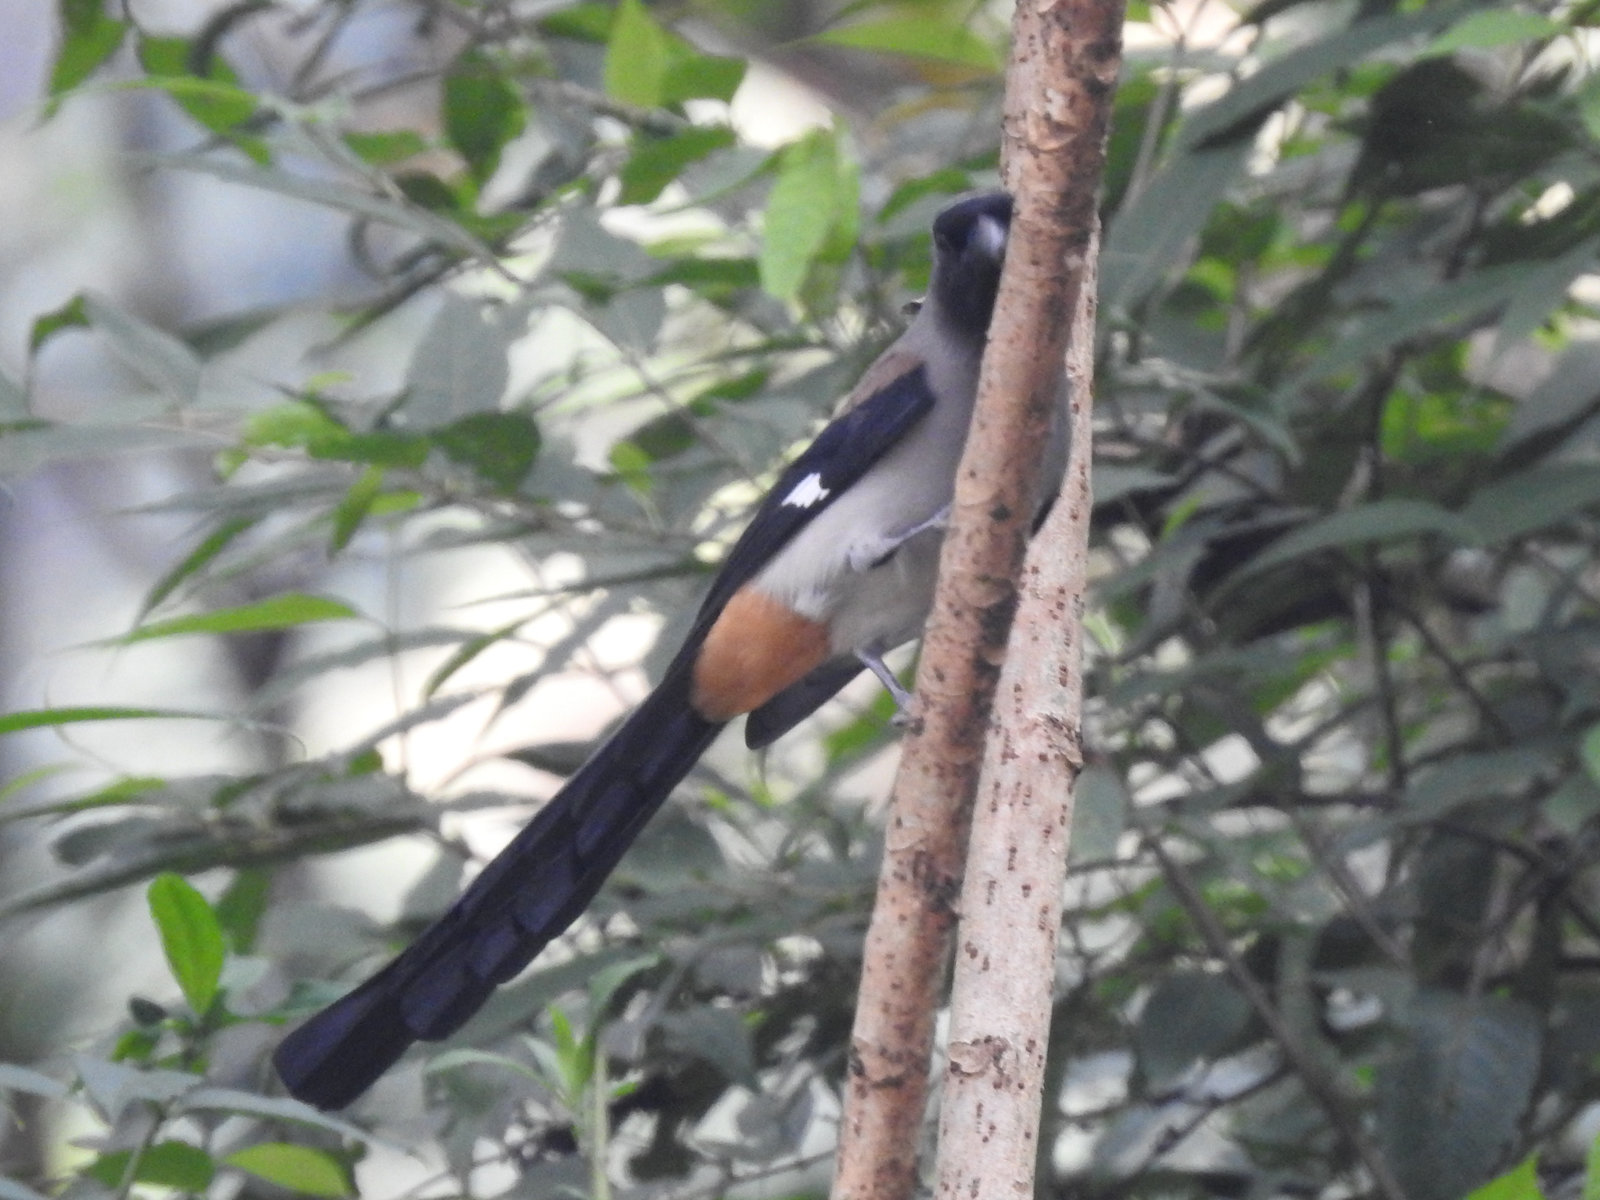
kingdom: Animalia
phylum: Chordata
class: Aves
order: Passeriformes
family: Corvidae
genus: Dendrocitta
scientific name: Dendrocitta formosae
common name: Grey treepie
